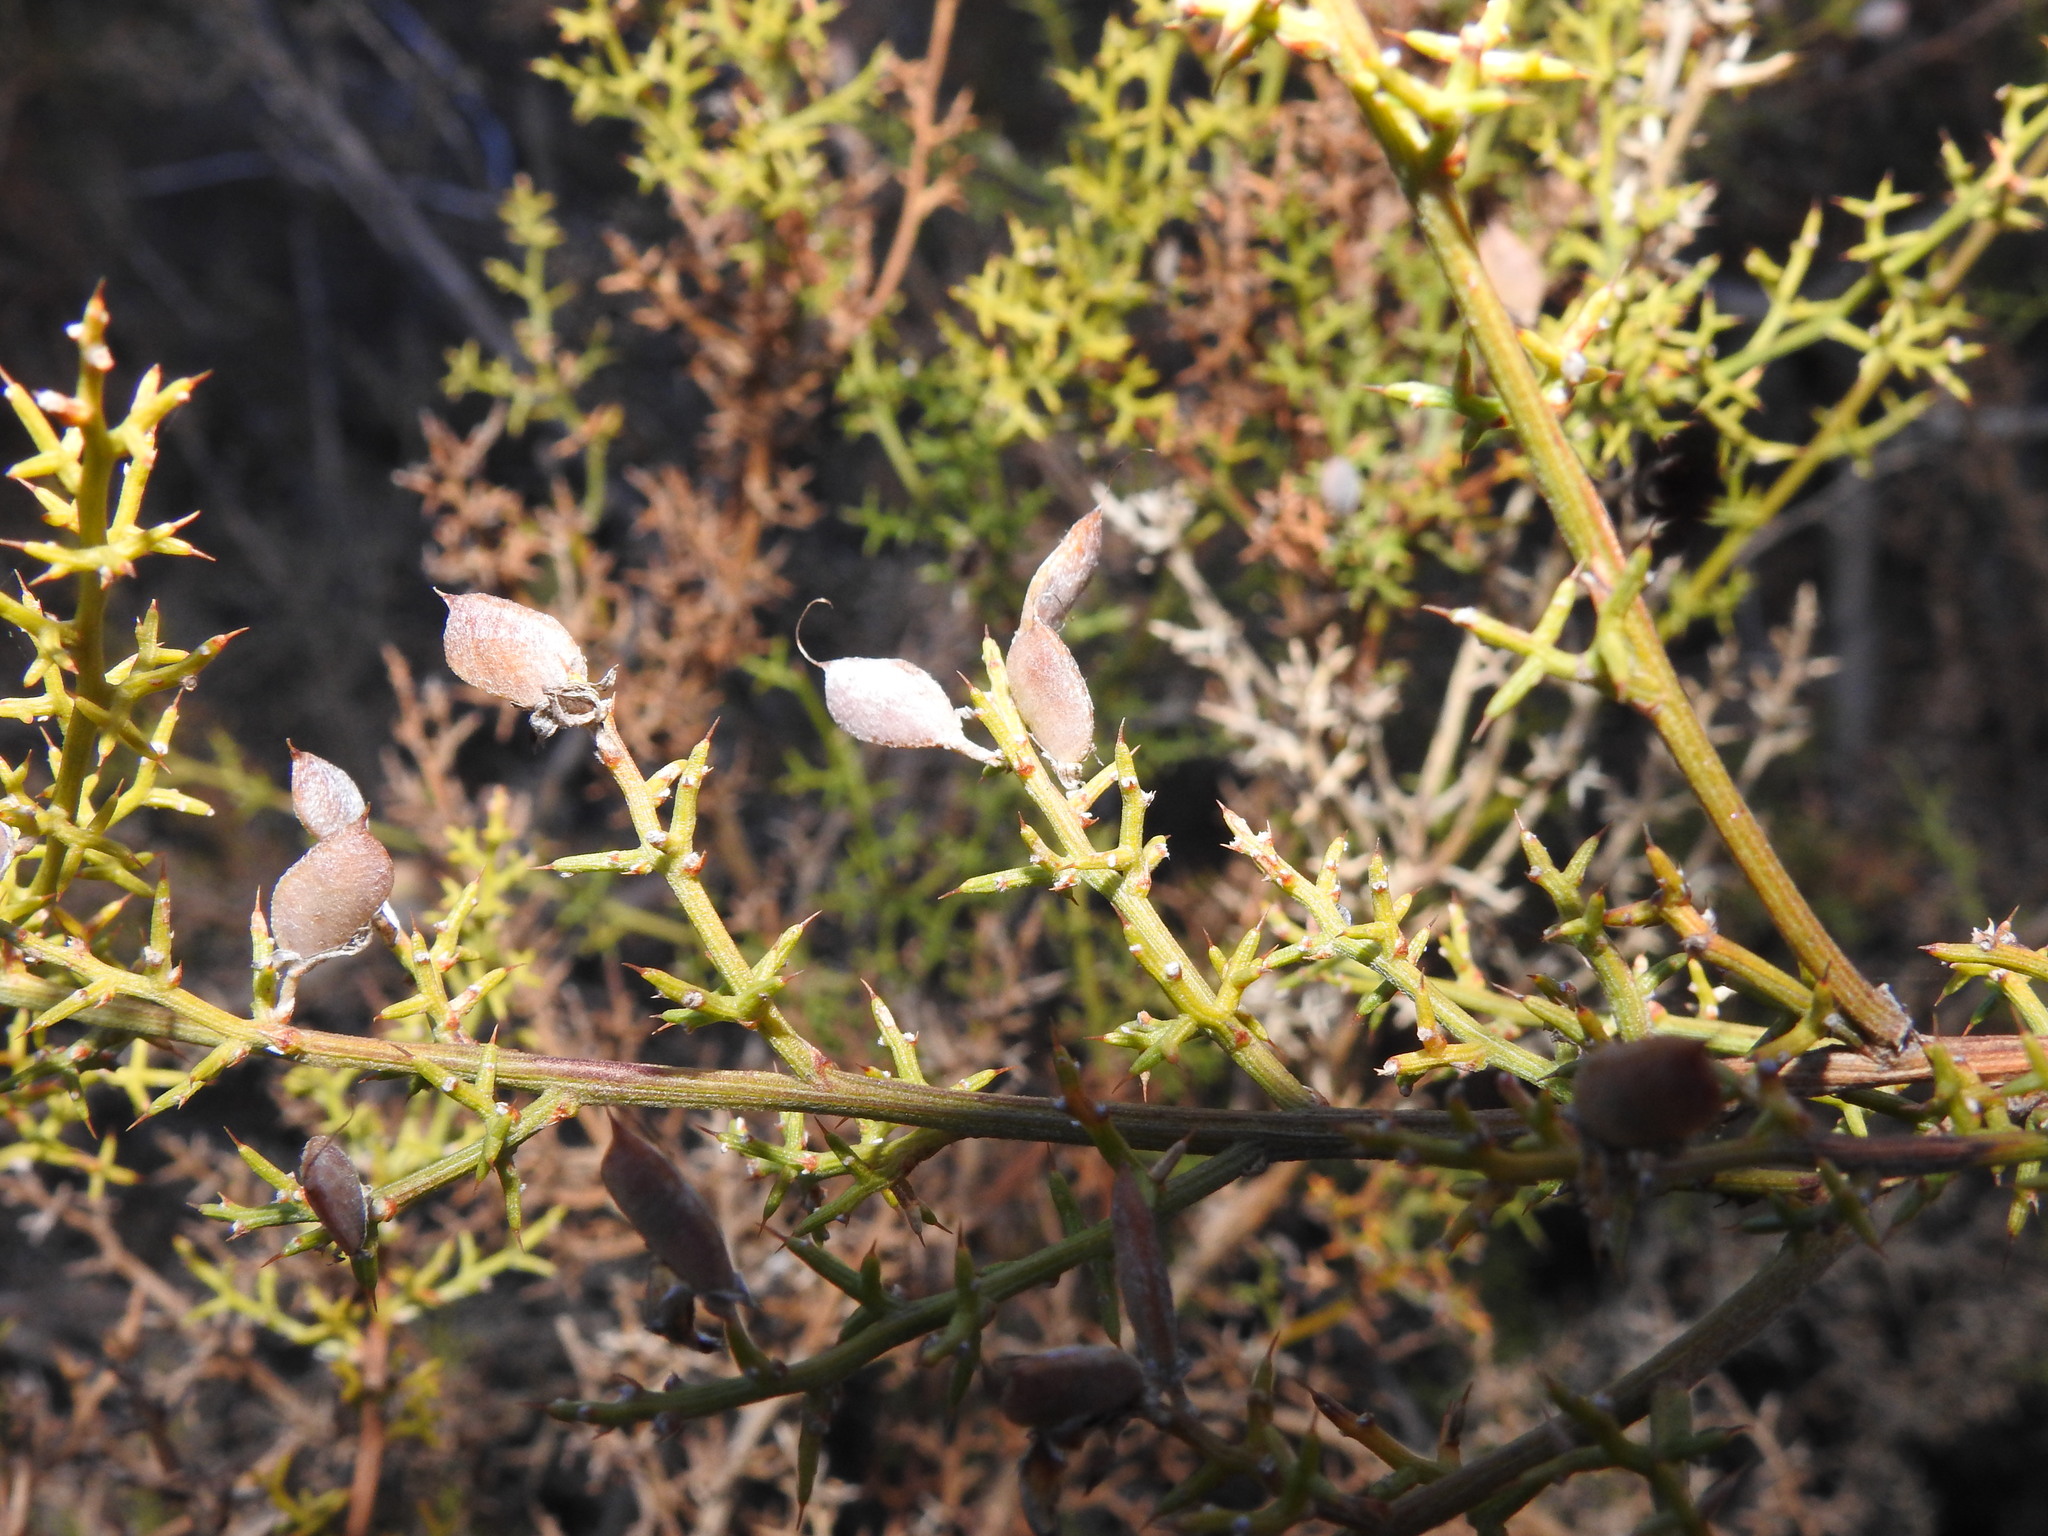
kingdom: Plantae
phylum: Tracheophyta
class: Magnoliopsida
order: Fabales
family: Fabaceae
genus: Stauracanthus
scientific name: Stauracanthus boivinii
